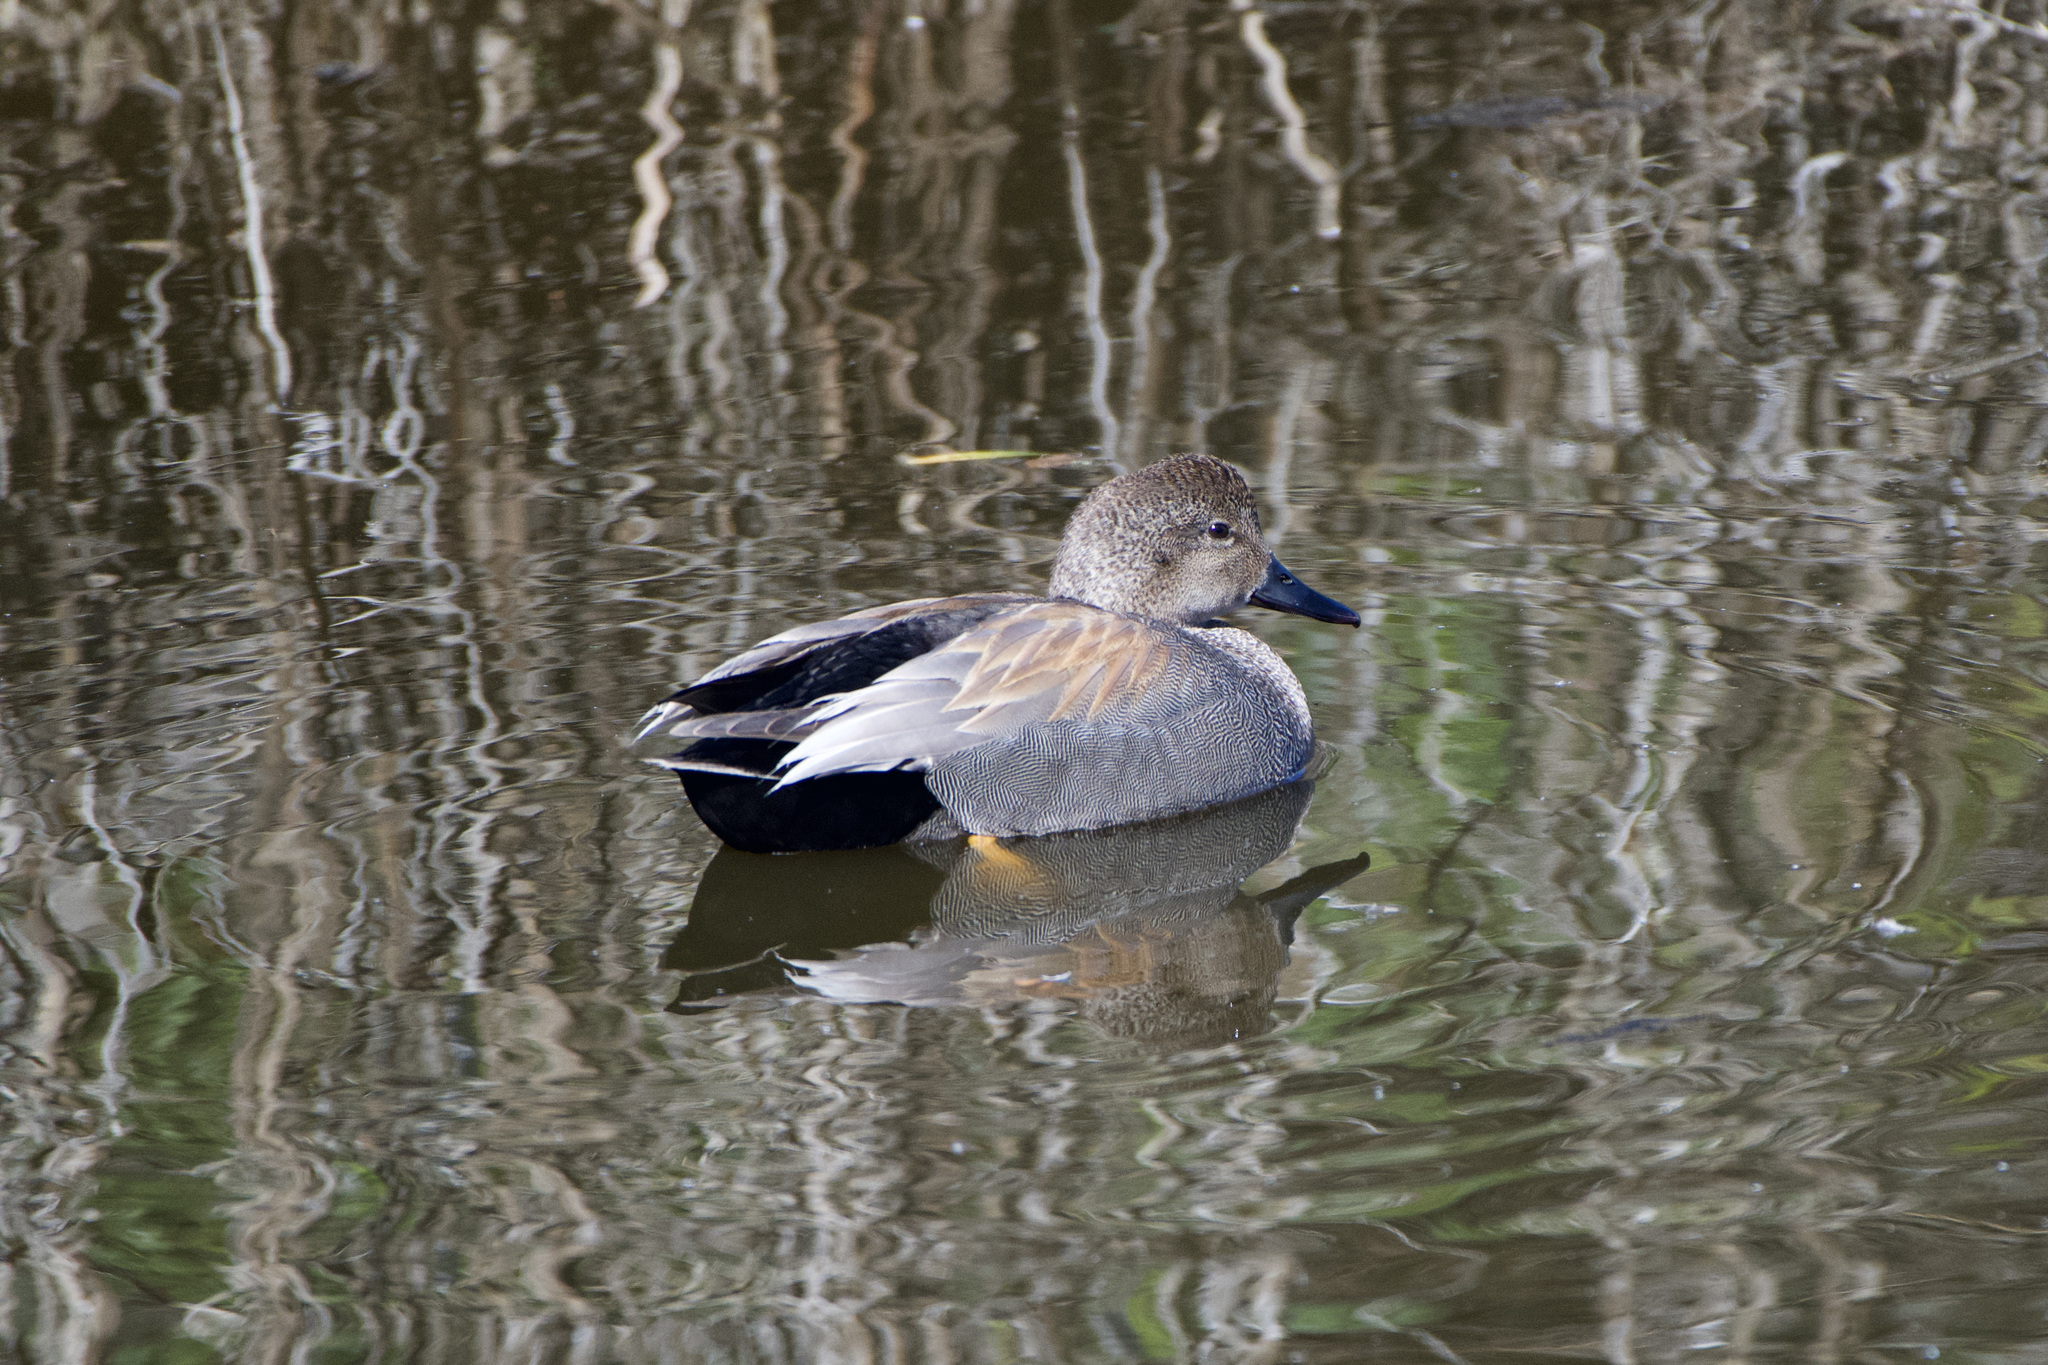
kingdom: Animalia
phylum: Chordata
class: Aves
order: Anseriformes
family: Anatidae
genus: Mareca
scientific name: Mareca strepera
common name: Gadwall
